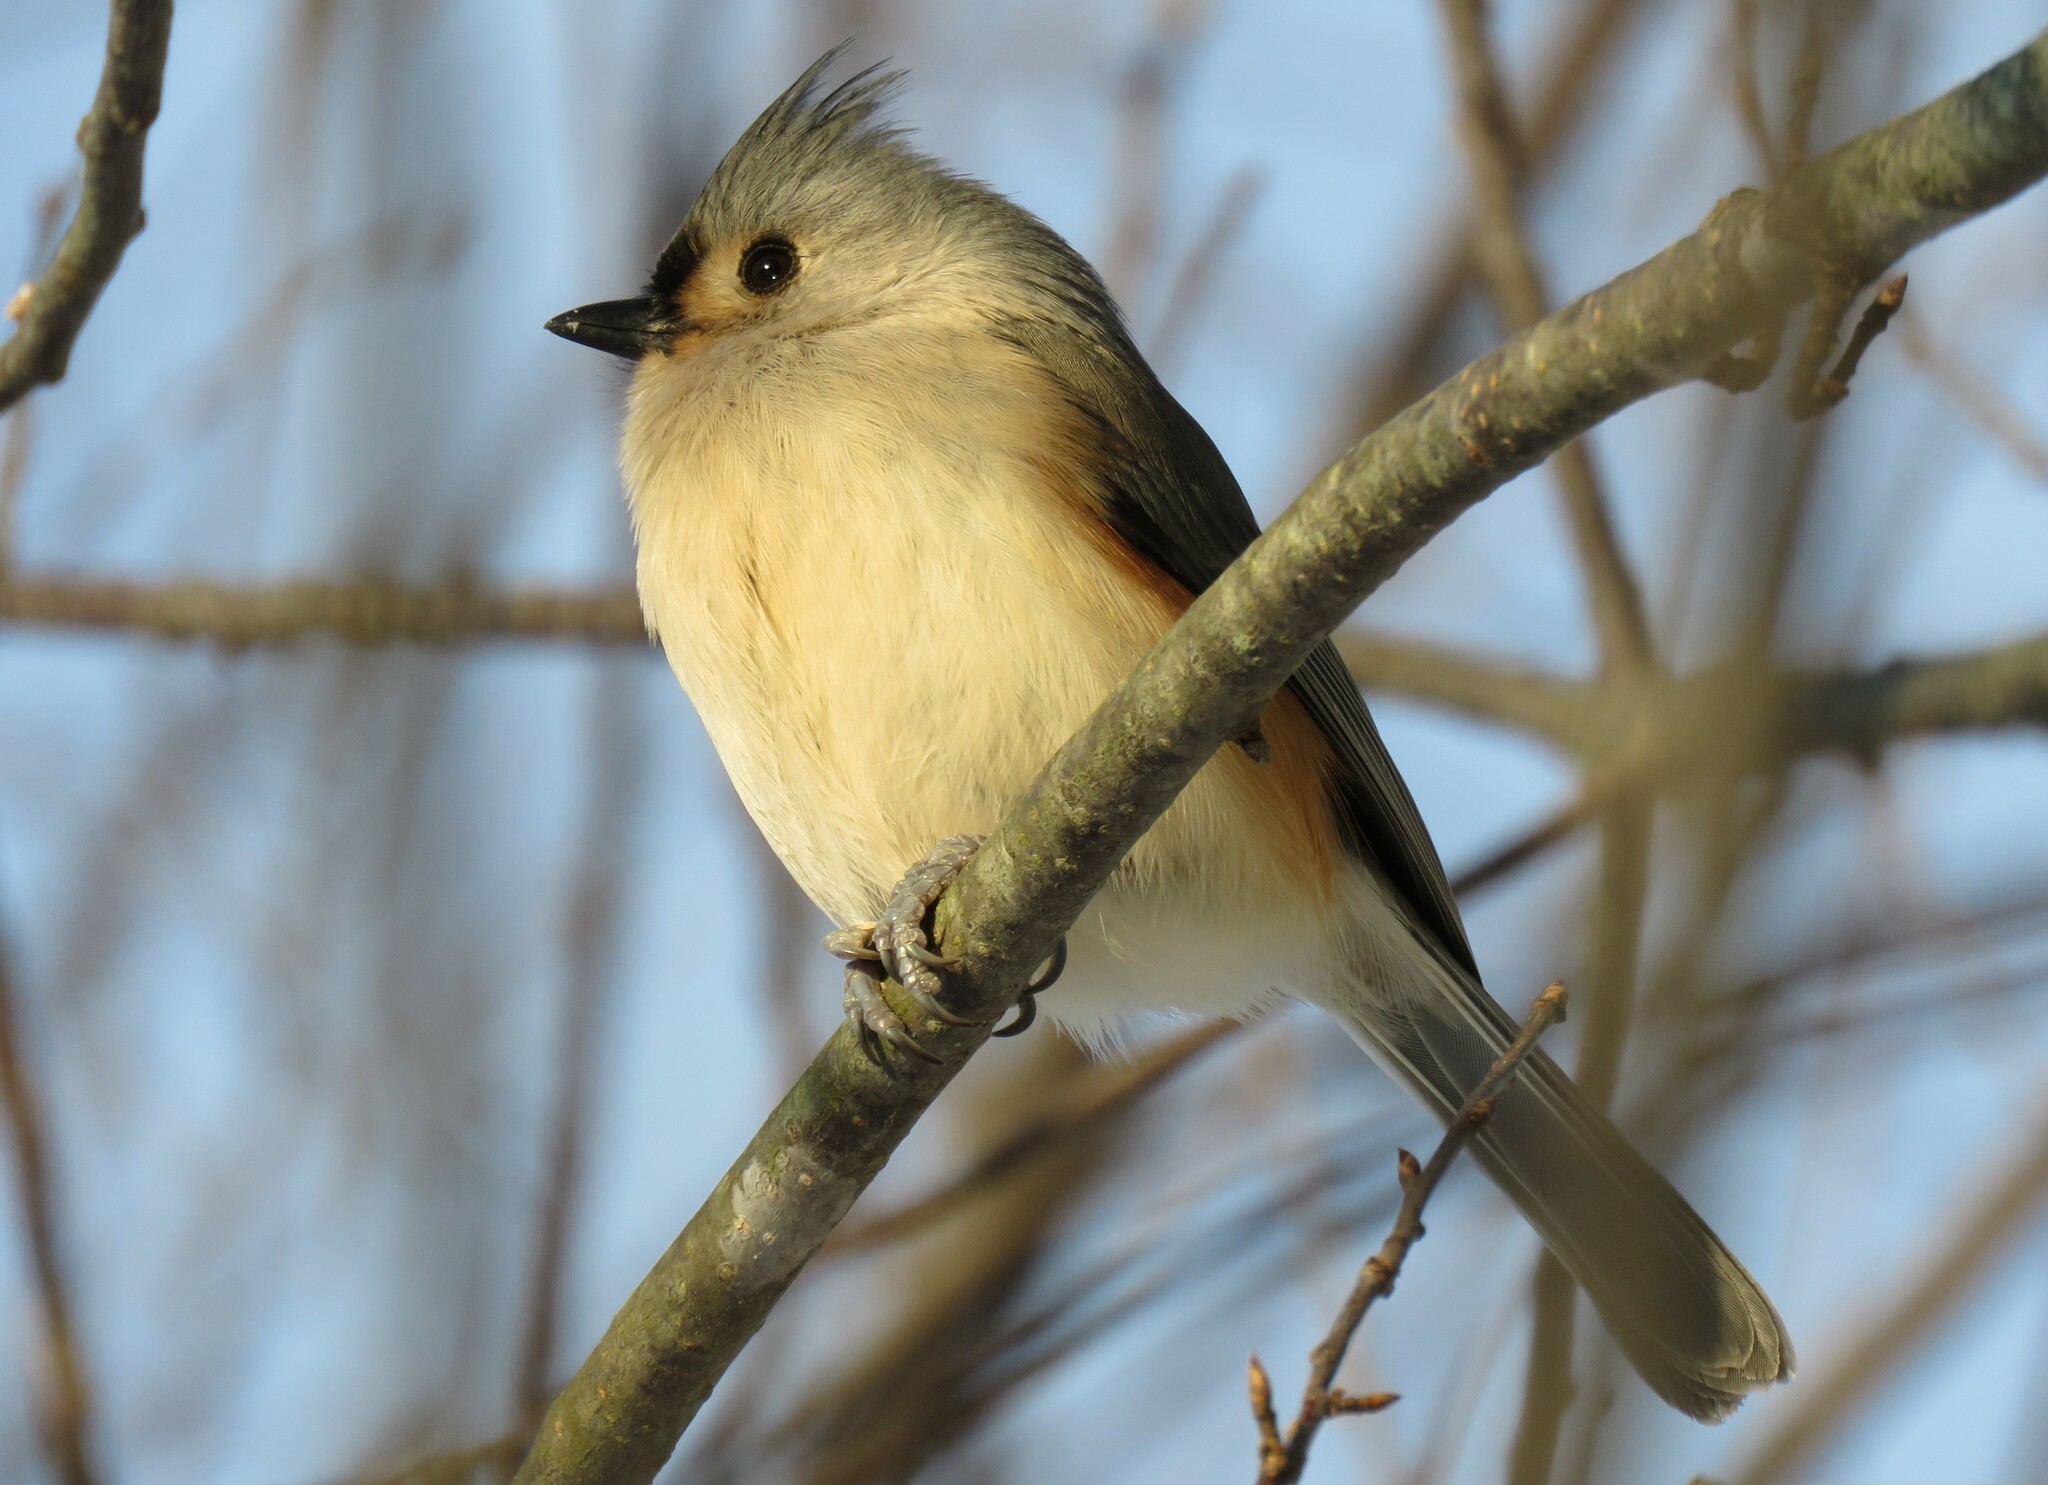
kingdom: Animalia
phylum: Chordata
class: Aves
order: Passeriformes
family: Paridae
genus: Baeolophus
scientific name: Baeolophus bicolor
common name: Tufted titmouse
